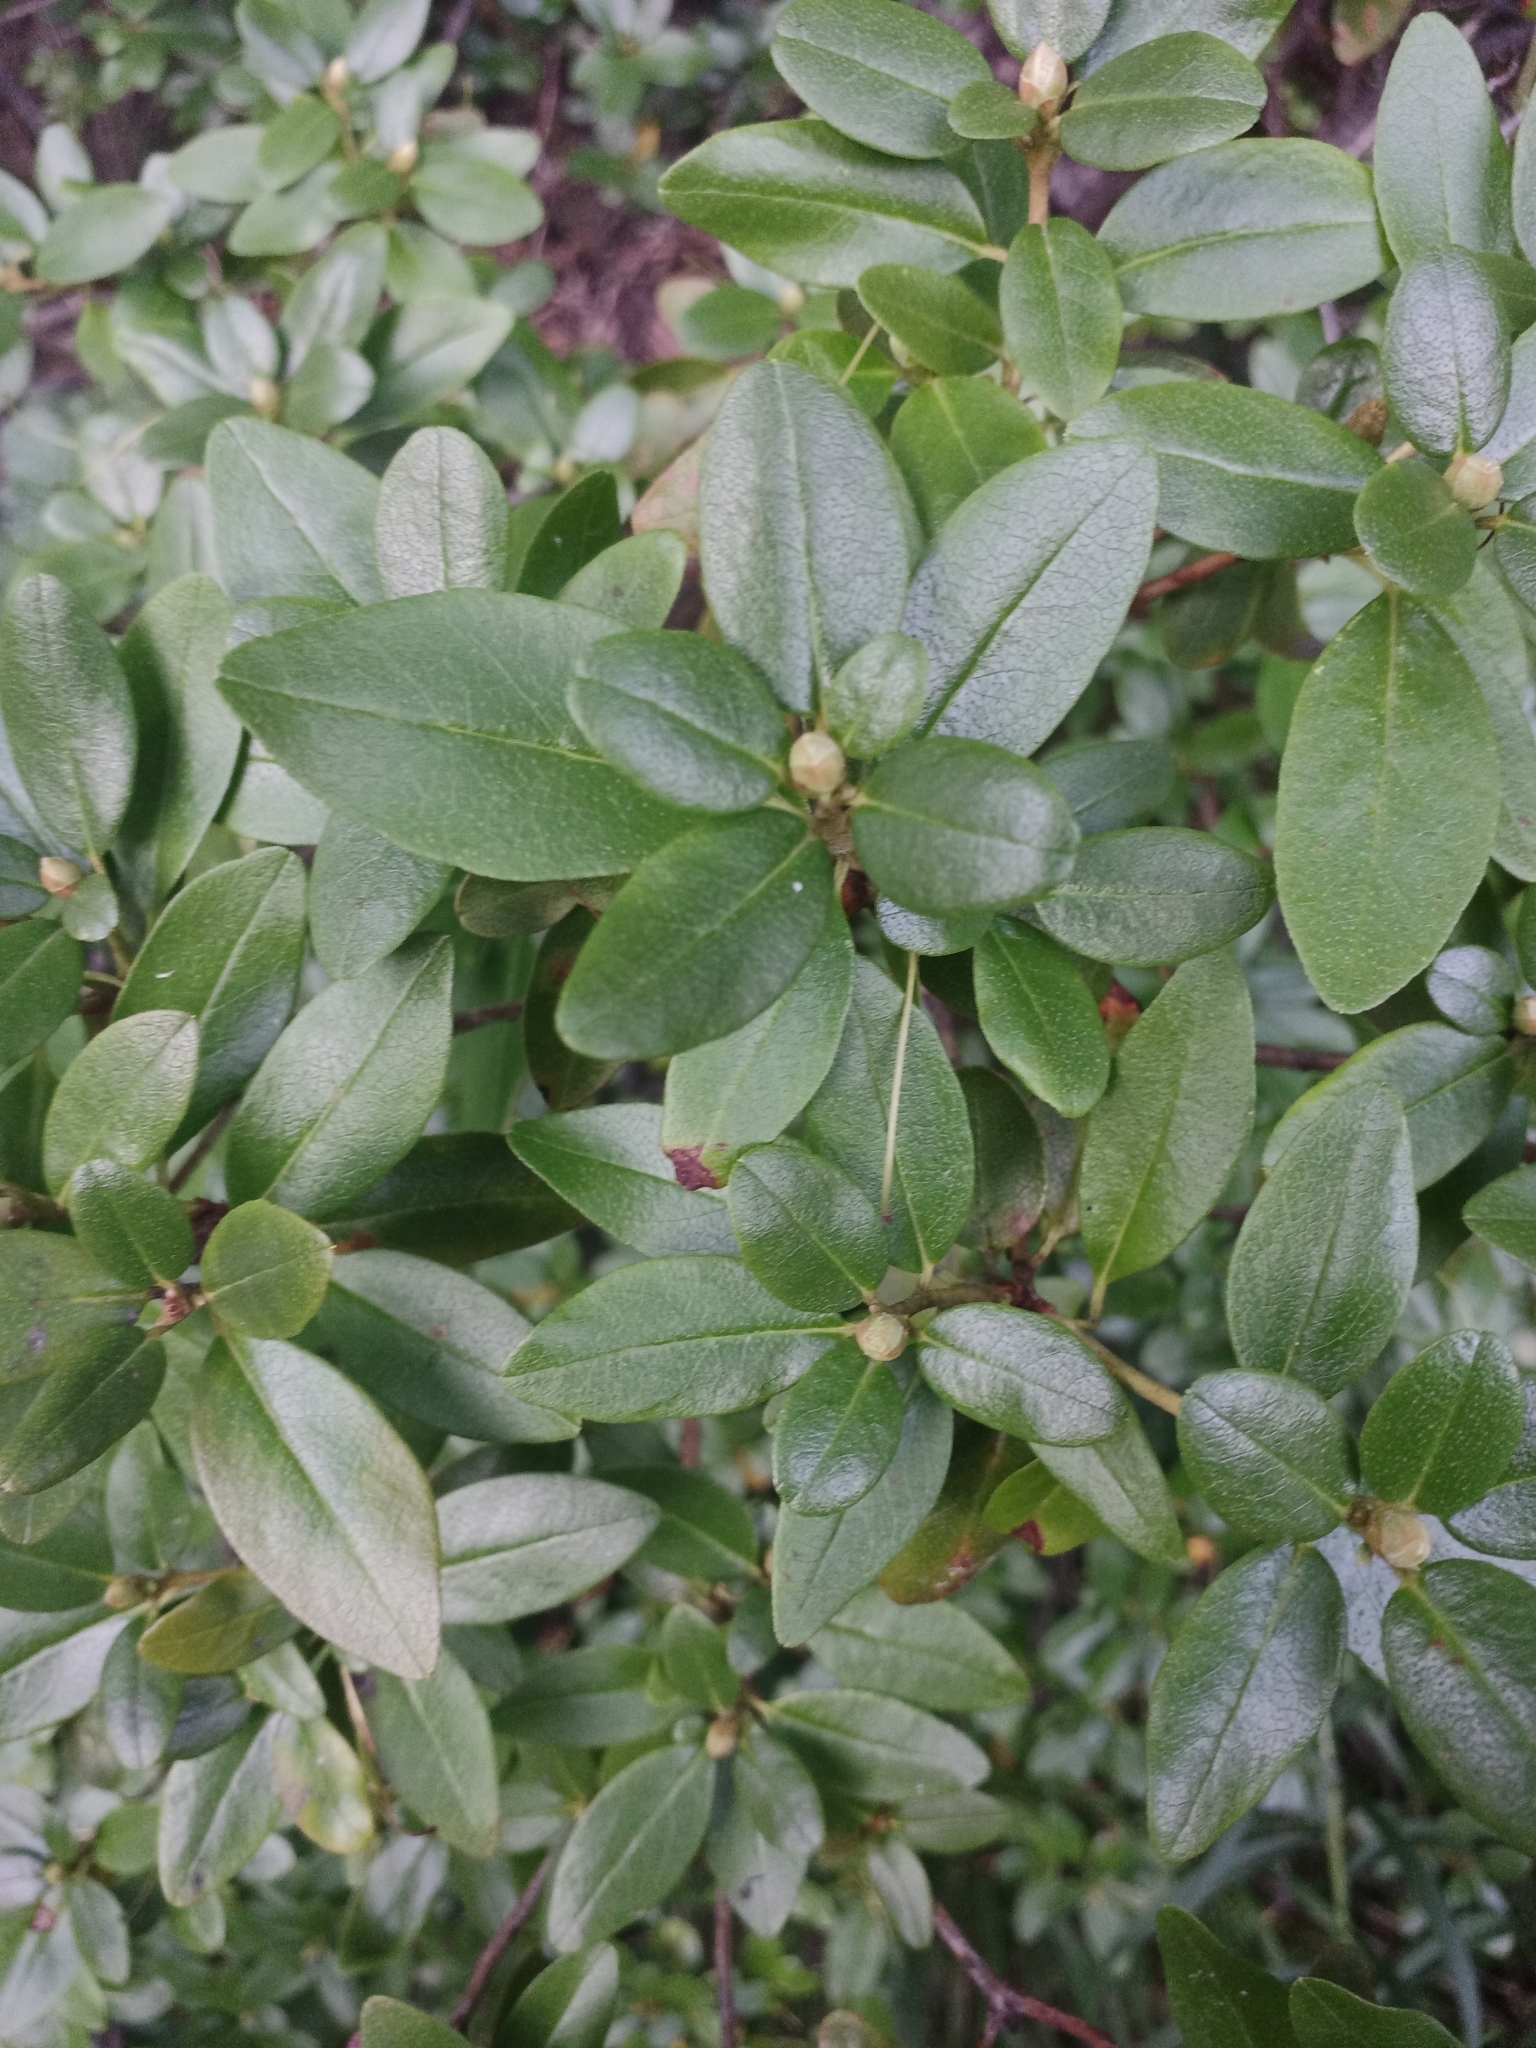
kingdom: Plantae
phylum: Tracheophyta
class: Magnoliopsida
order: Ericales
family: Ericaceae
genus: Rhododendron
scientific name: Rhododendron dauricum
